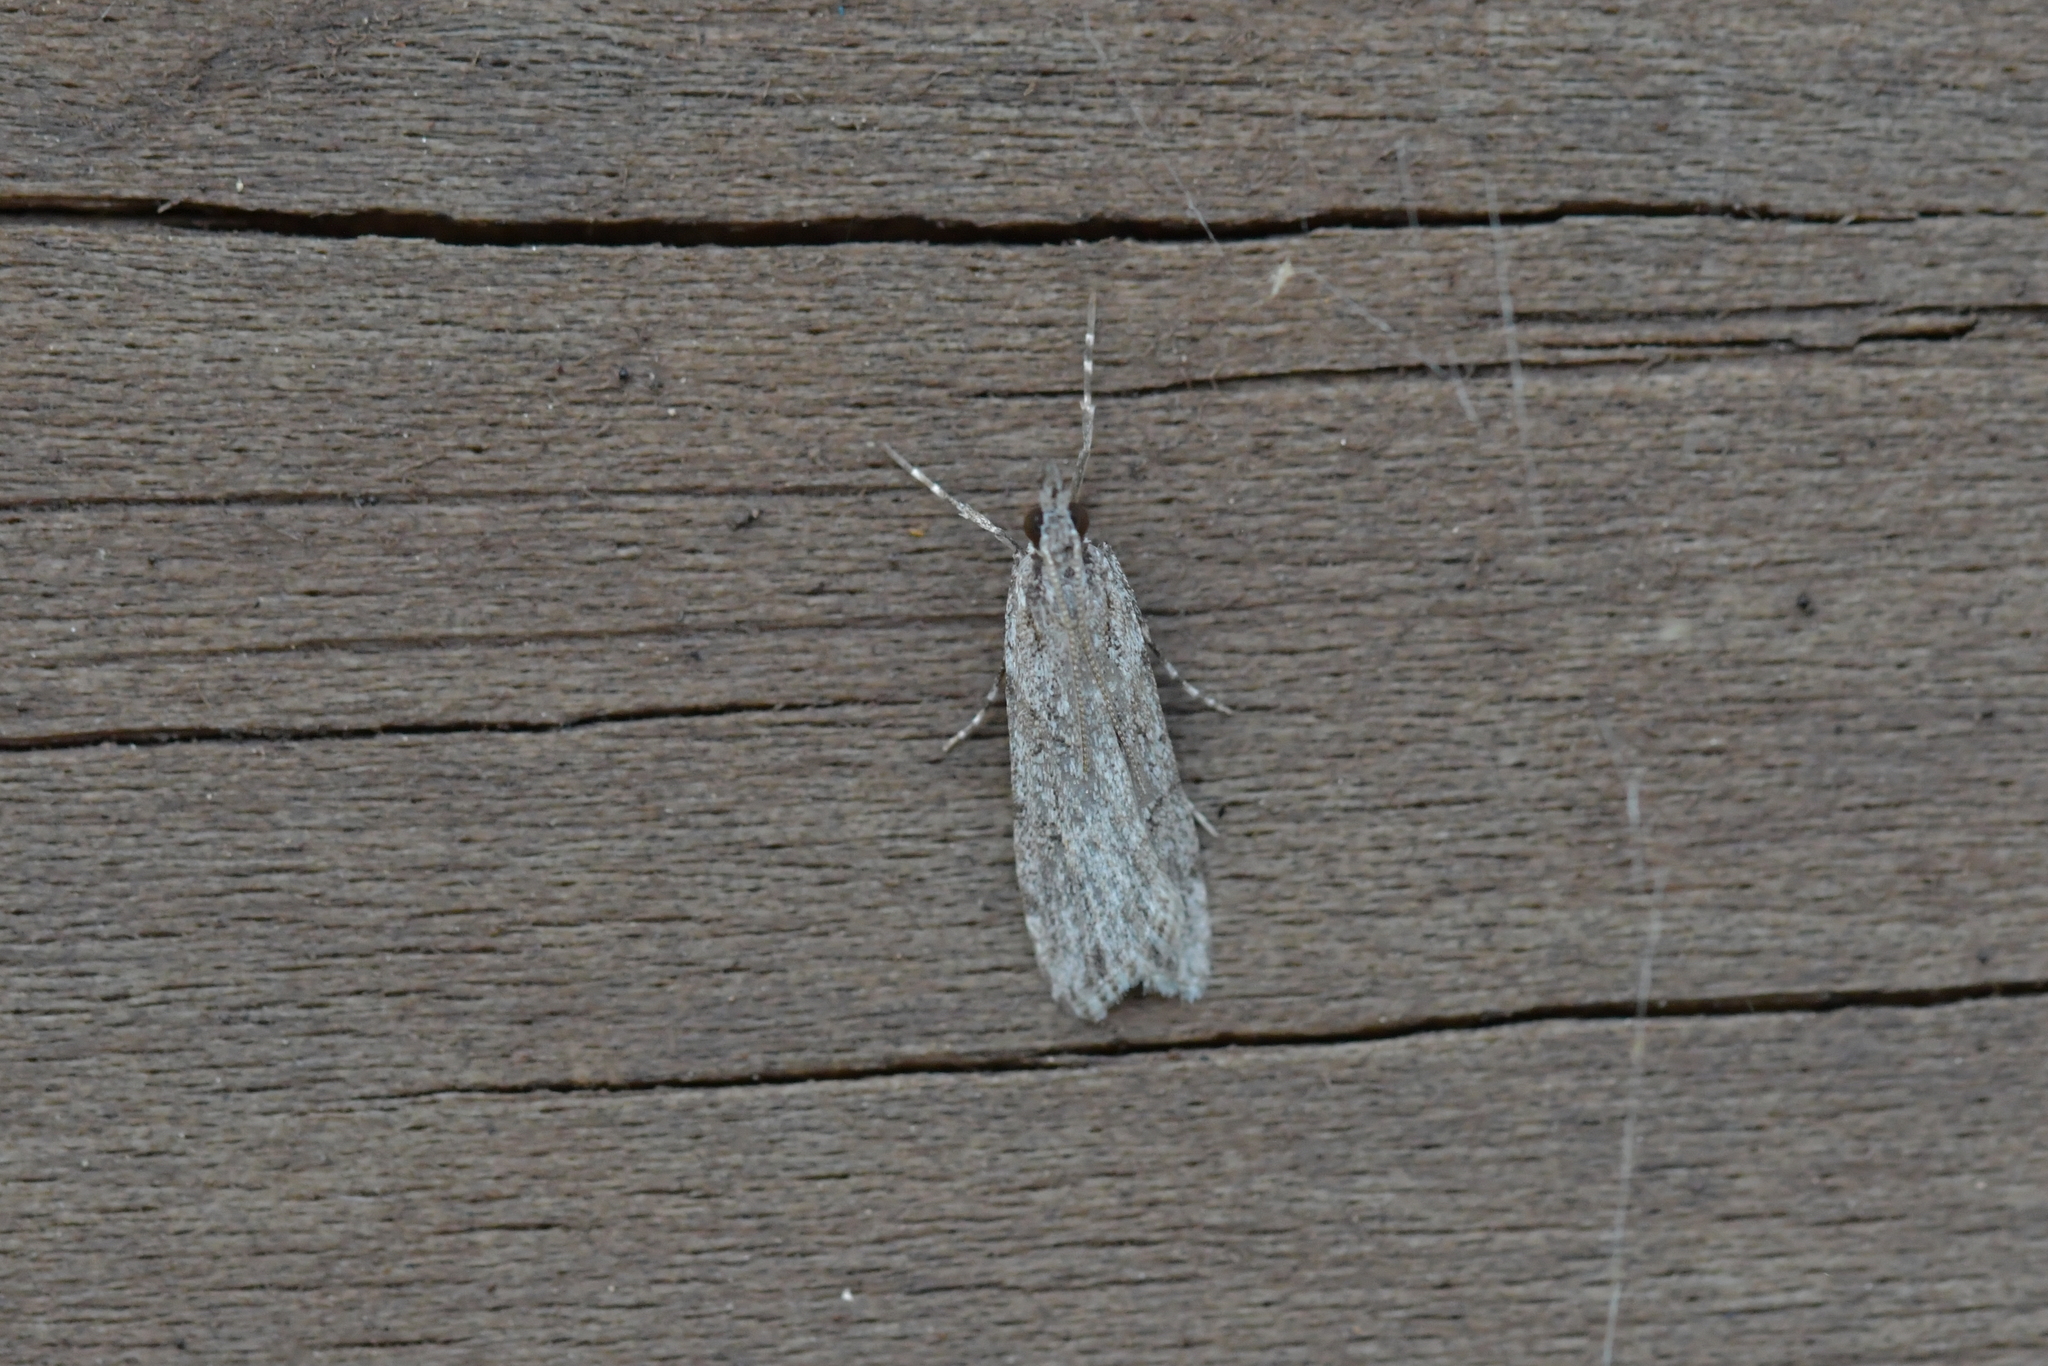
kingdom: Animalia
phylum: Arthropoda
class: Insecta
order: Lepidoptera
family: Crambidae
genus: Scoparia
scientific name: Scoparia chalicodes
